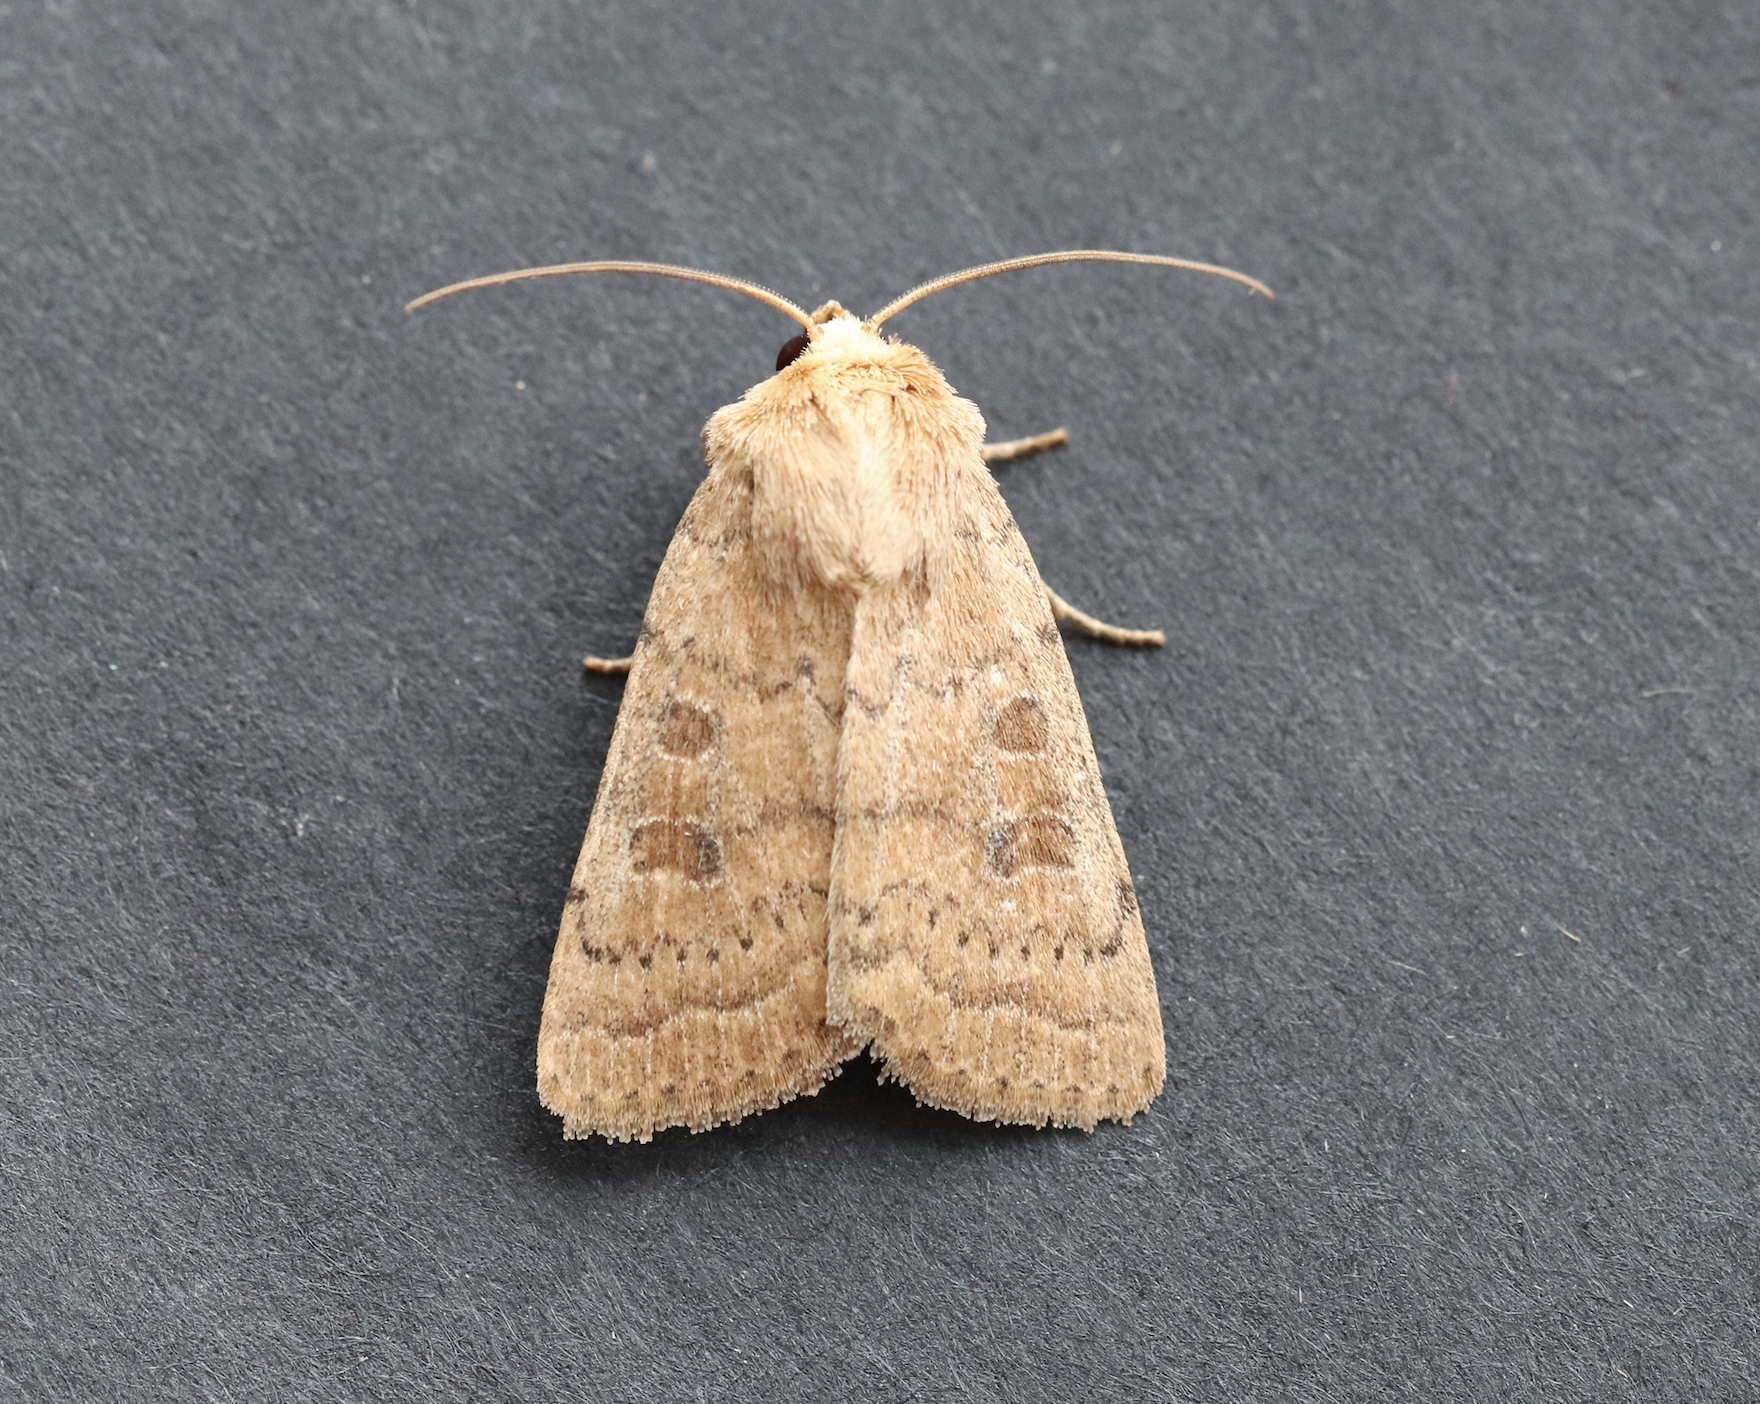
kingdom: Animalia
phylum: Arthropoda
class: Insecta
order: Lepidoptera
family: Noctuidae
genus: Hoplodrina
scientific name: Hoplodrina octogenaria
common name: Uncertain
